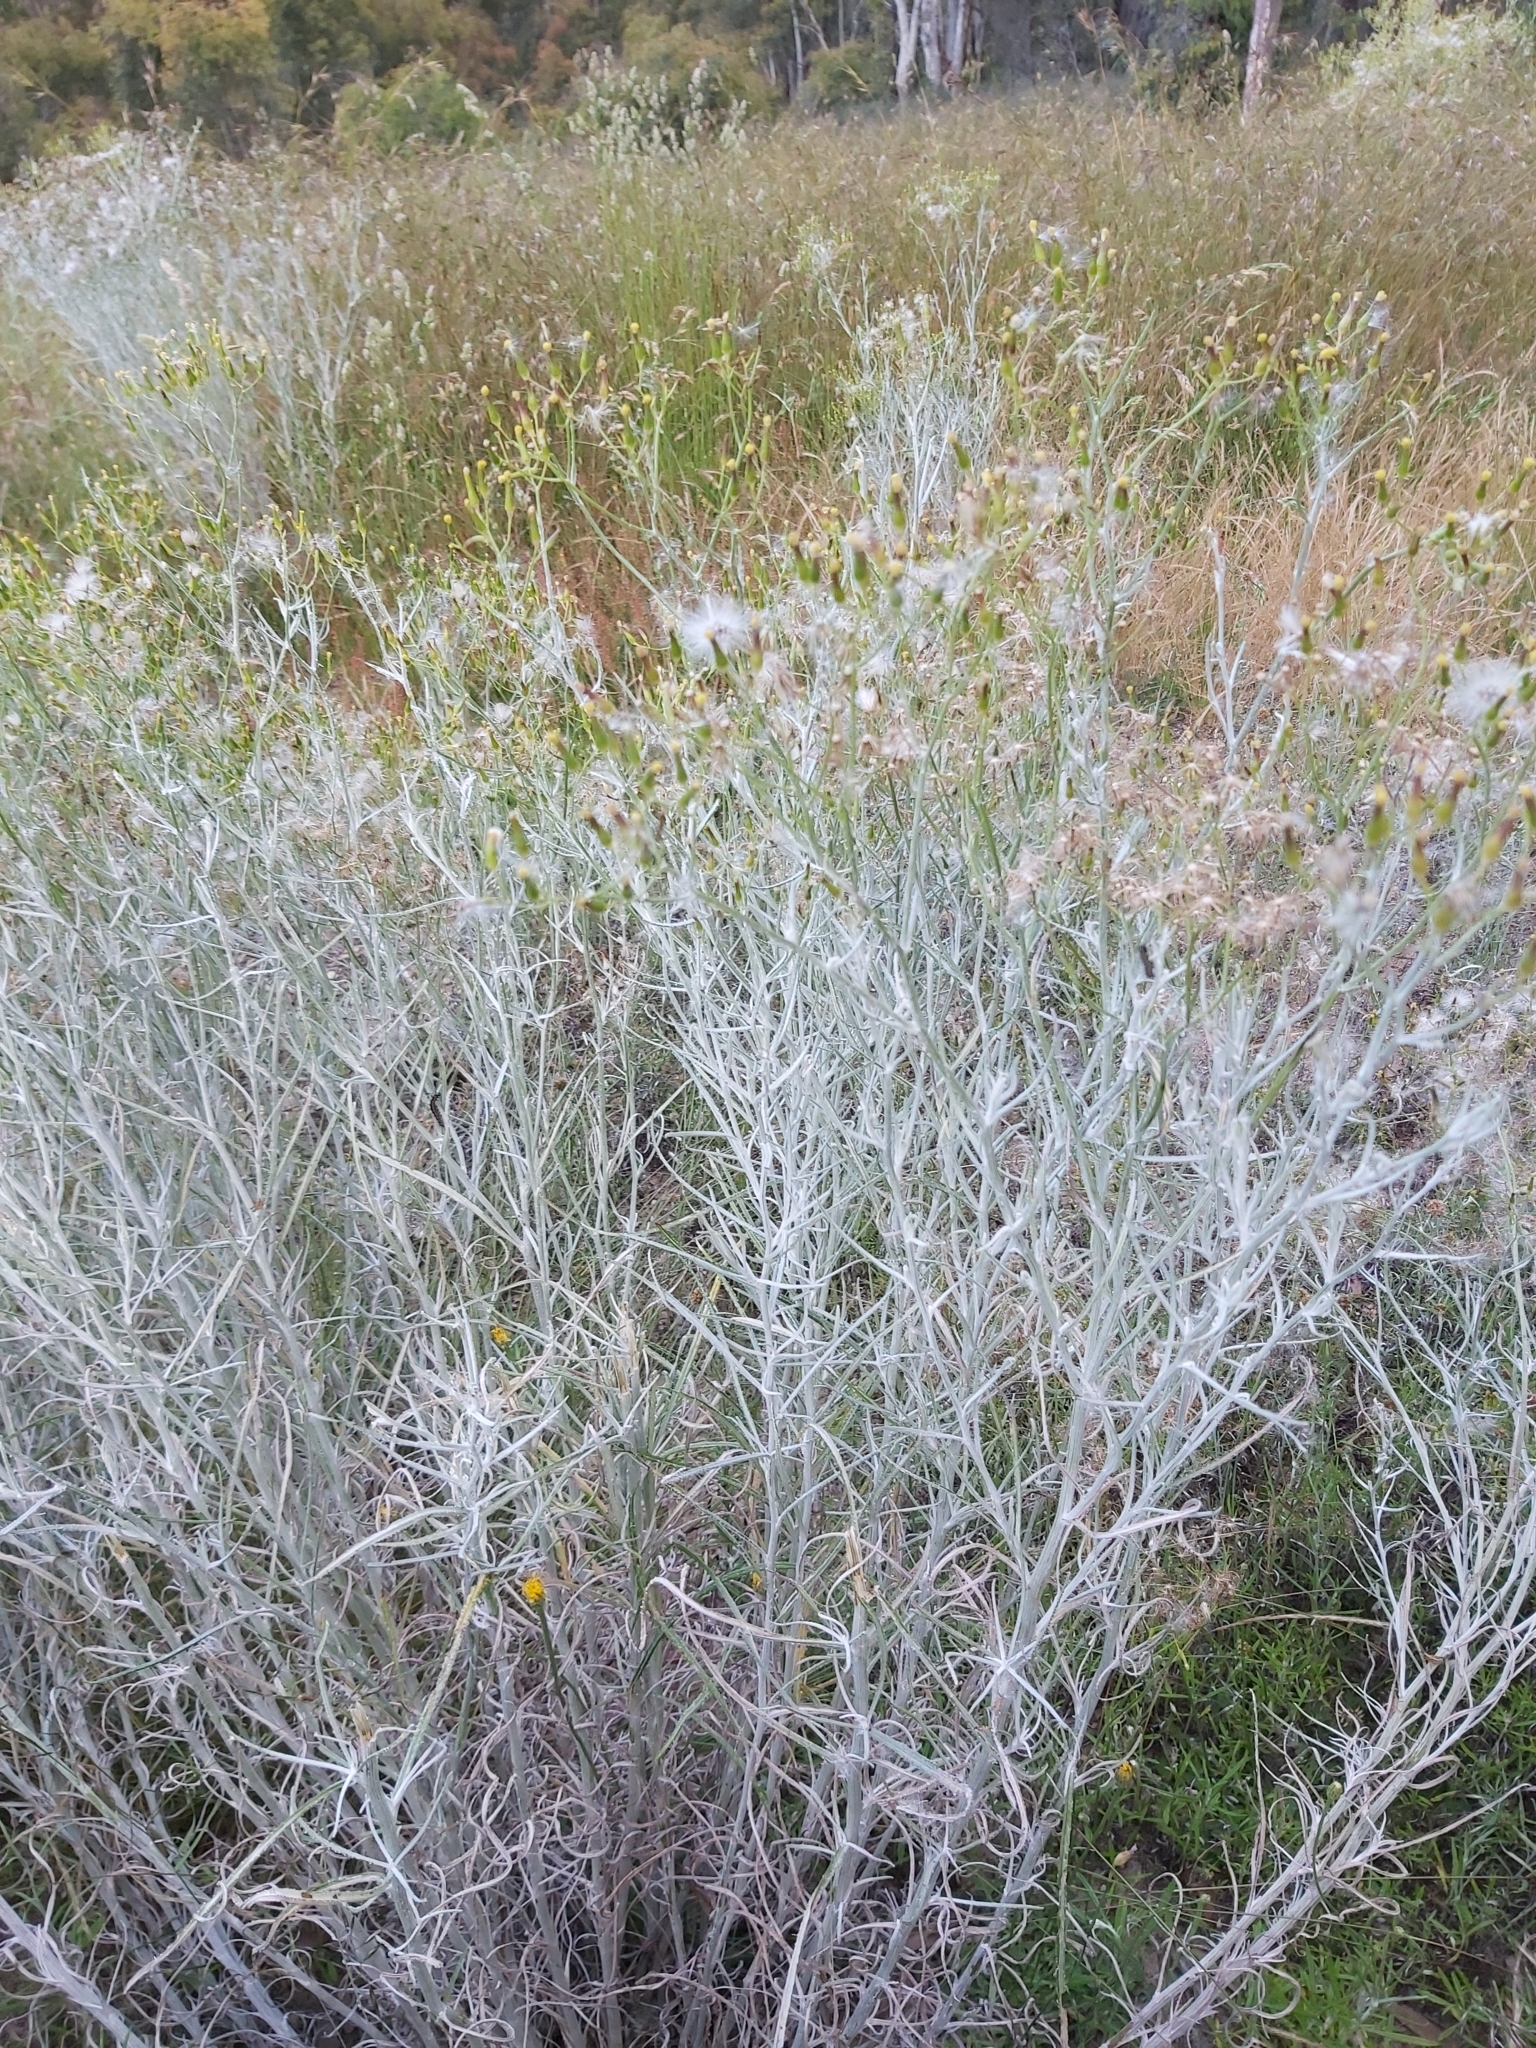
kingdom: Plantae
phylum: Tracheophyta
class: Magnoliopsida
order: Asterales
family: Asteraceae
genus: Senecio
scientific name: Senecio quadridentatus
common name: Cotton fireweed
